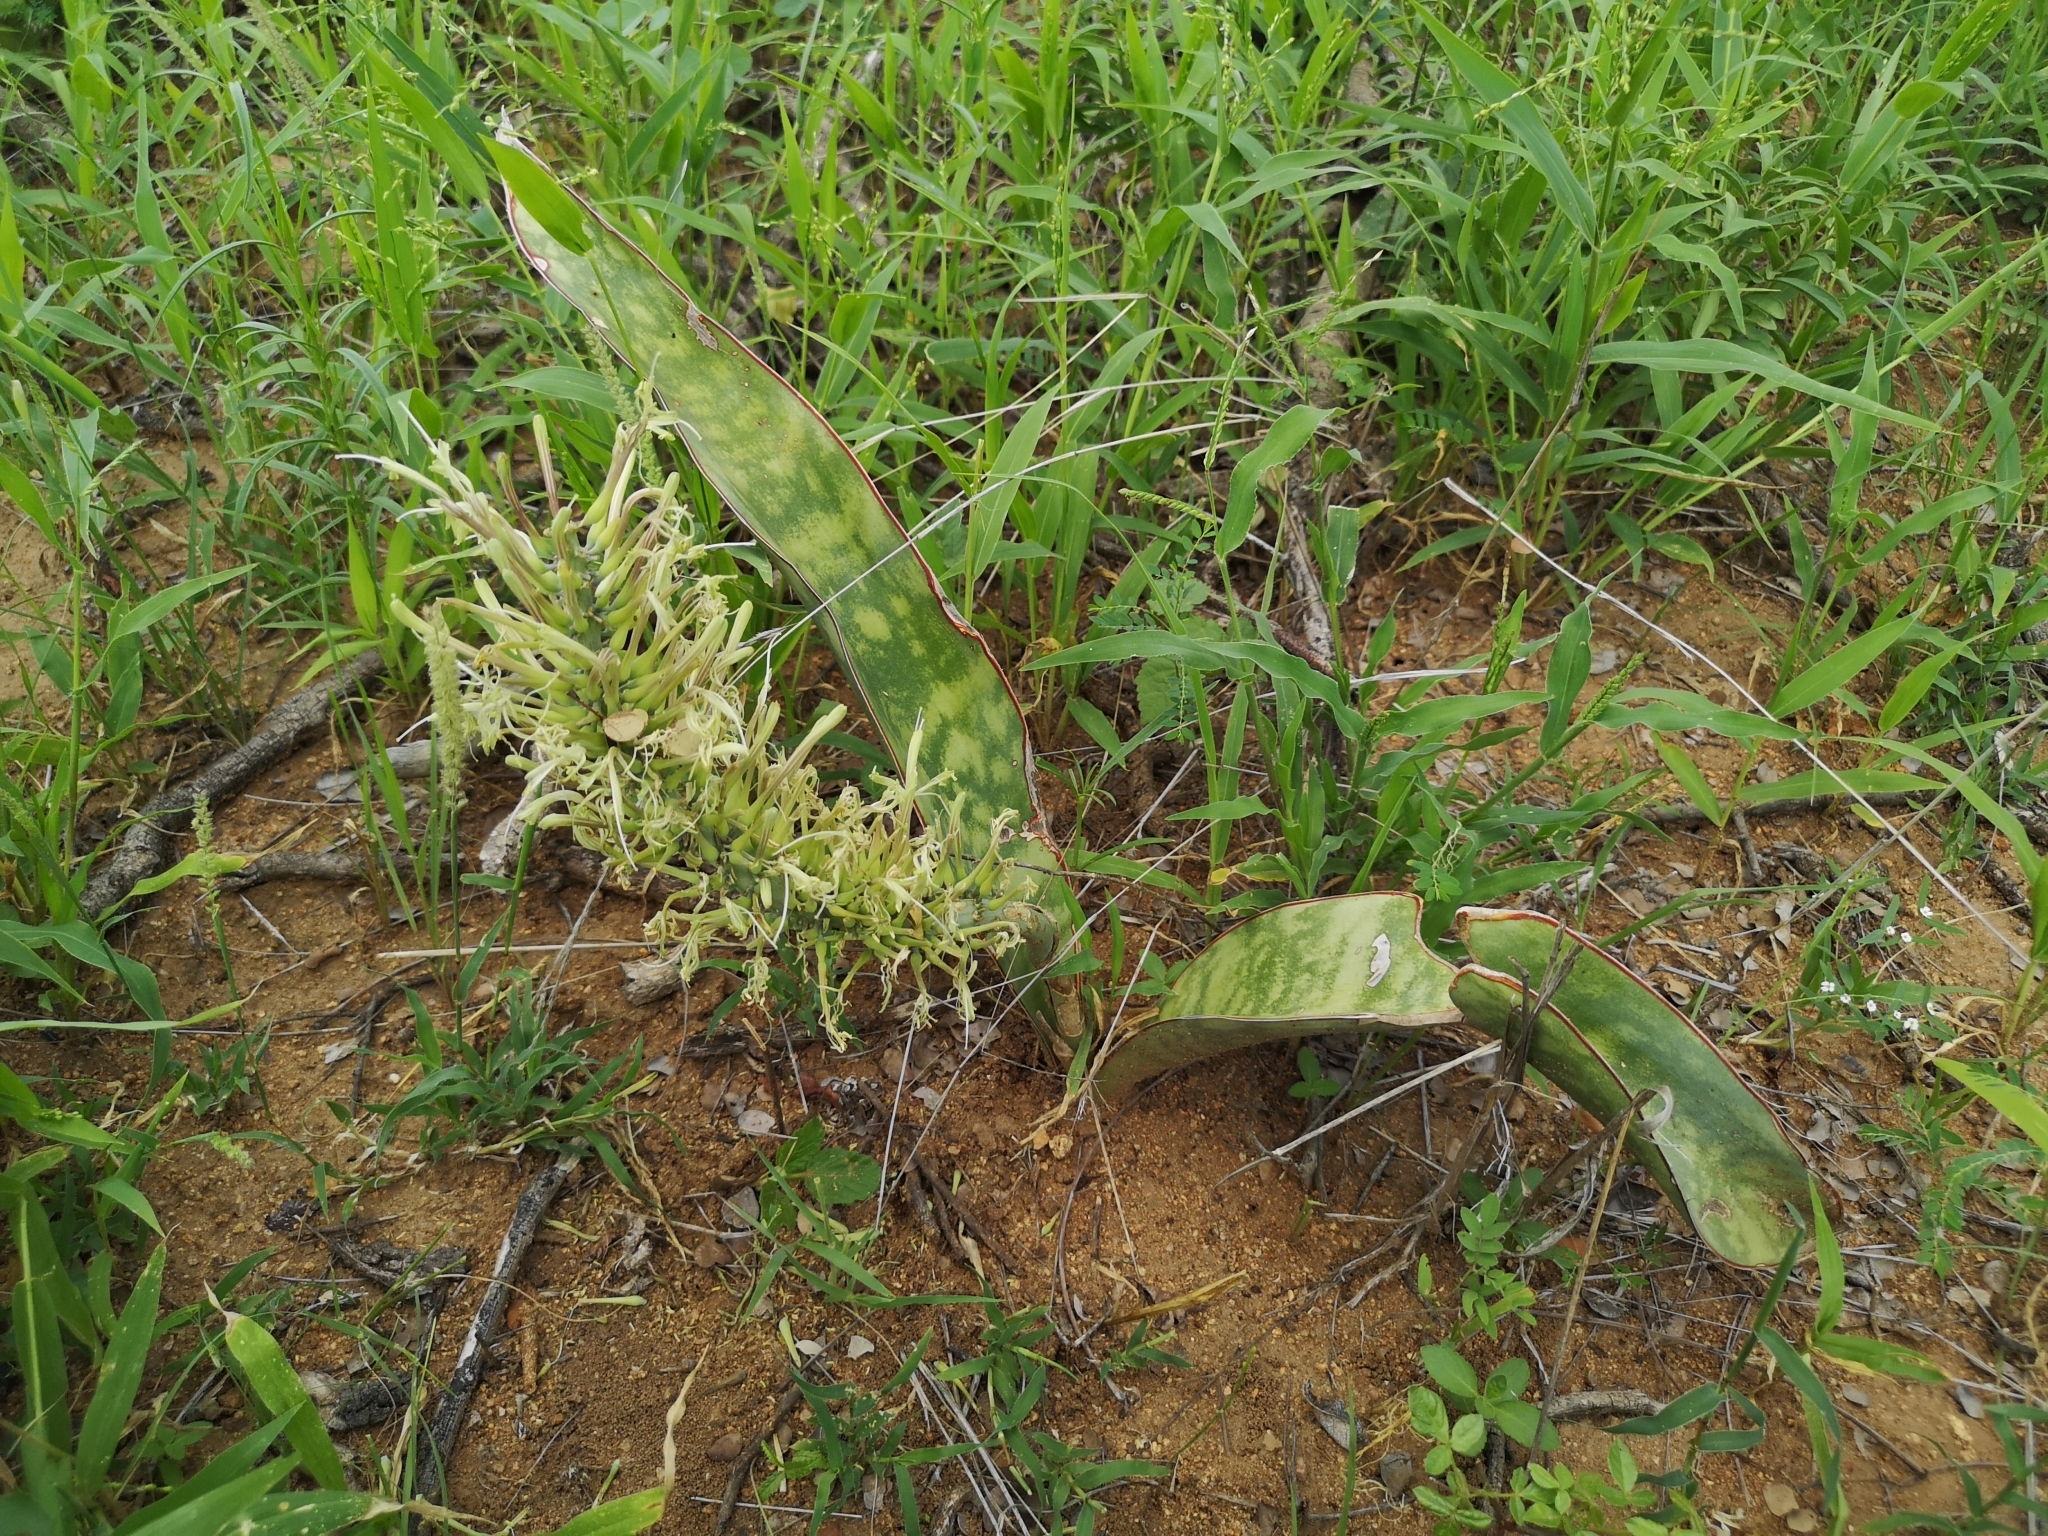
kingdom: Plantae
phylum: Tracheophyta
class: Liliopsida
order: Asparagales
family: Asparagaceae
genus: Dracaena
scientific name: Dracaena hyacinthoides
